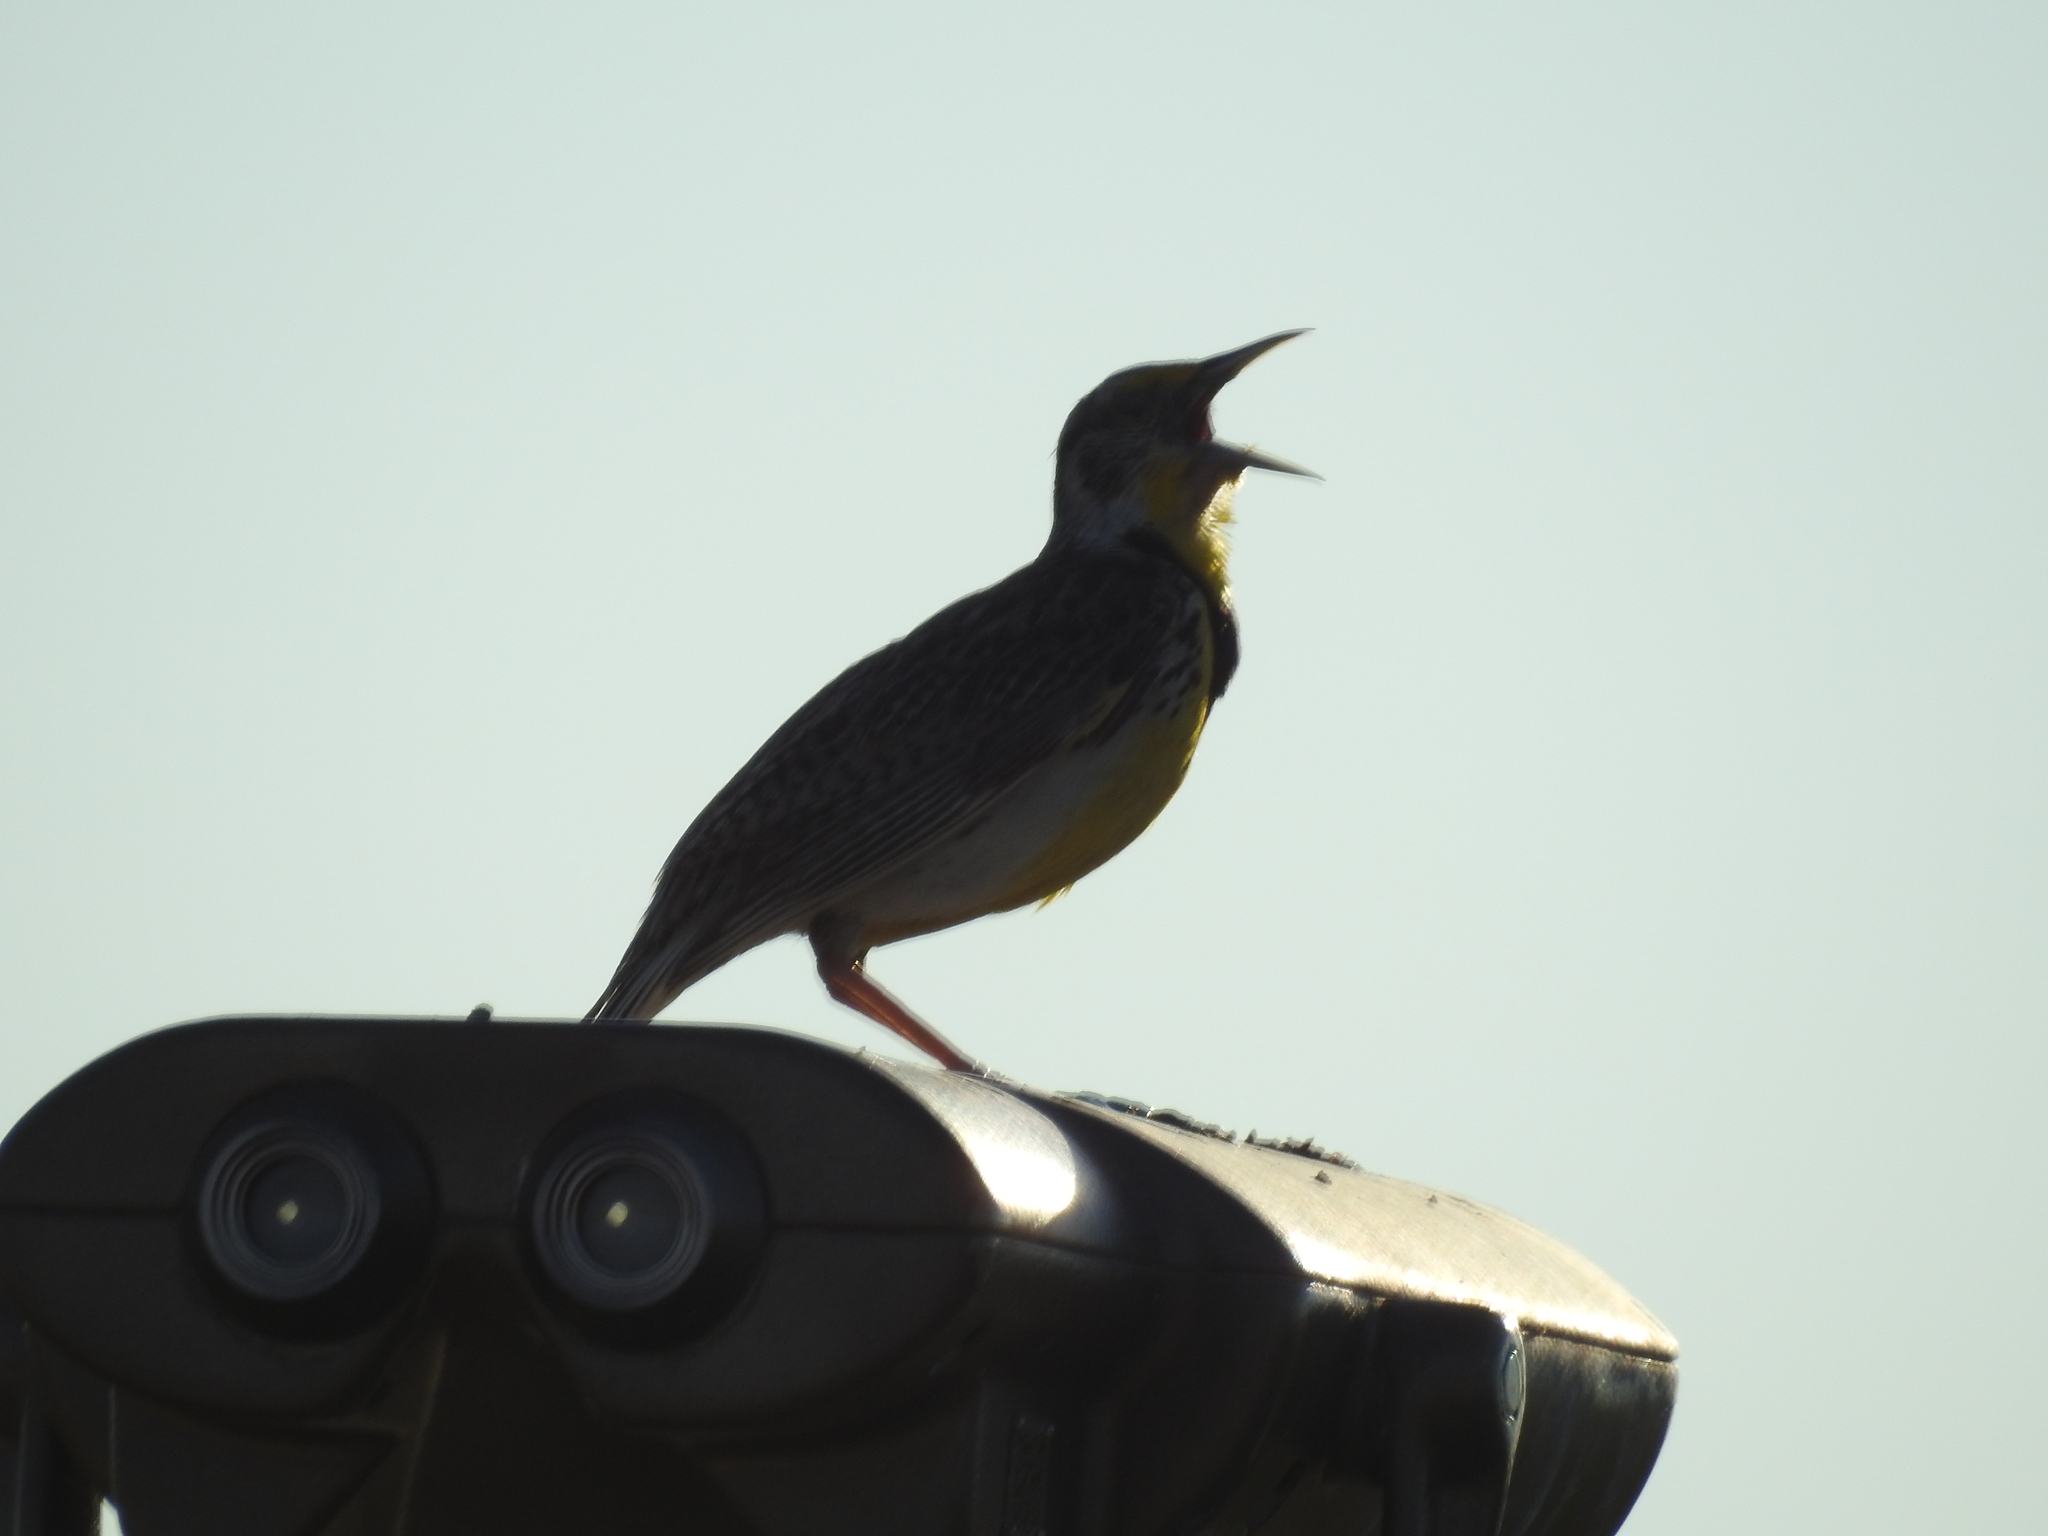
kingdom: Animalia
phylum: Chordata
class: Aves
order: Passeriformes
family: Icteridae
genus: Sturnella
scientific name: Sturnella neglecta
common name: Western meadowlark
